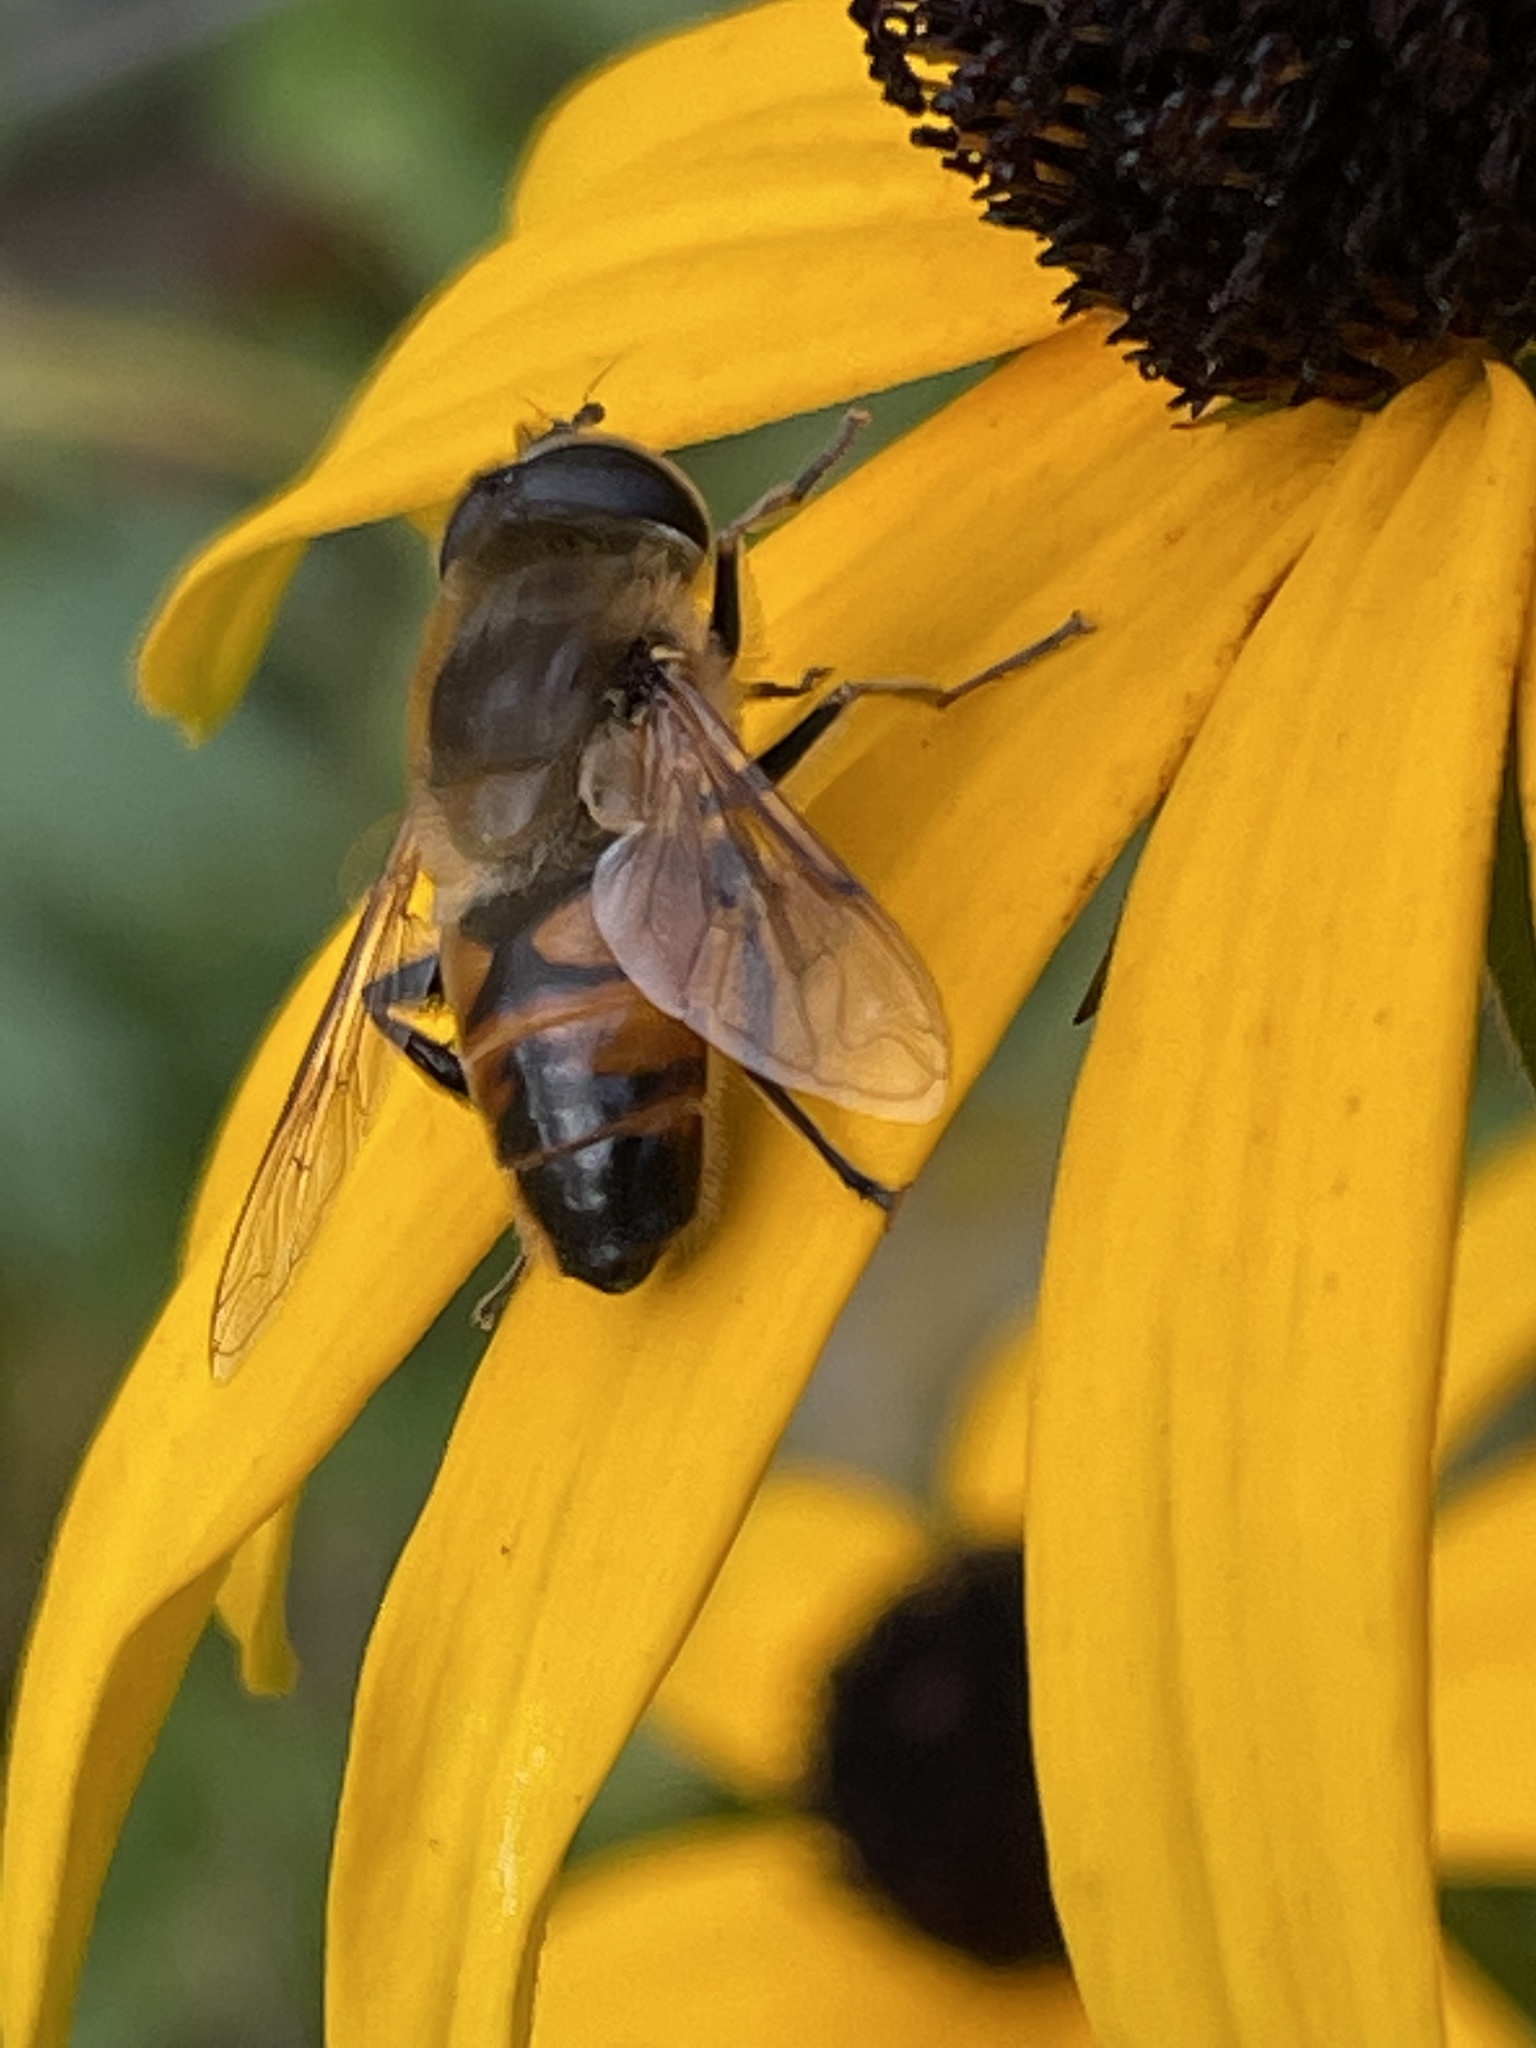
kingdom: Animalia
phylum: Arthropoda
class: Insecta
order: Diptera
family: Syrphidae
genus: Eristalis
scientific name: Eristalis tenax
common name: Drone fly
